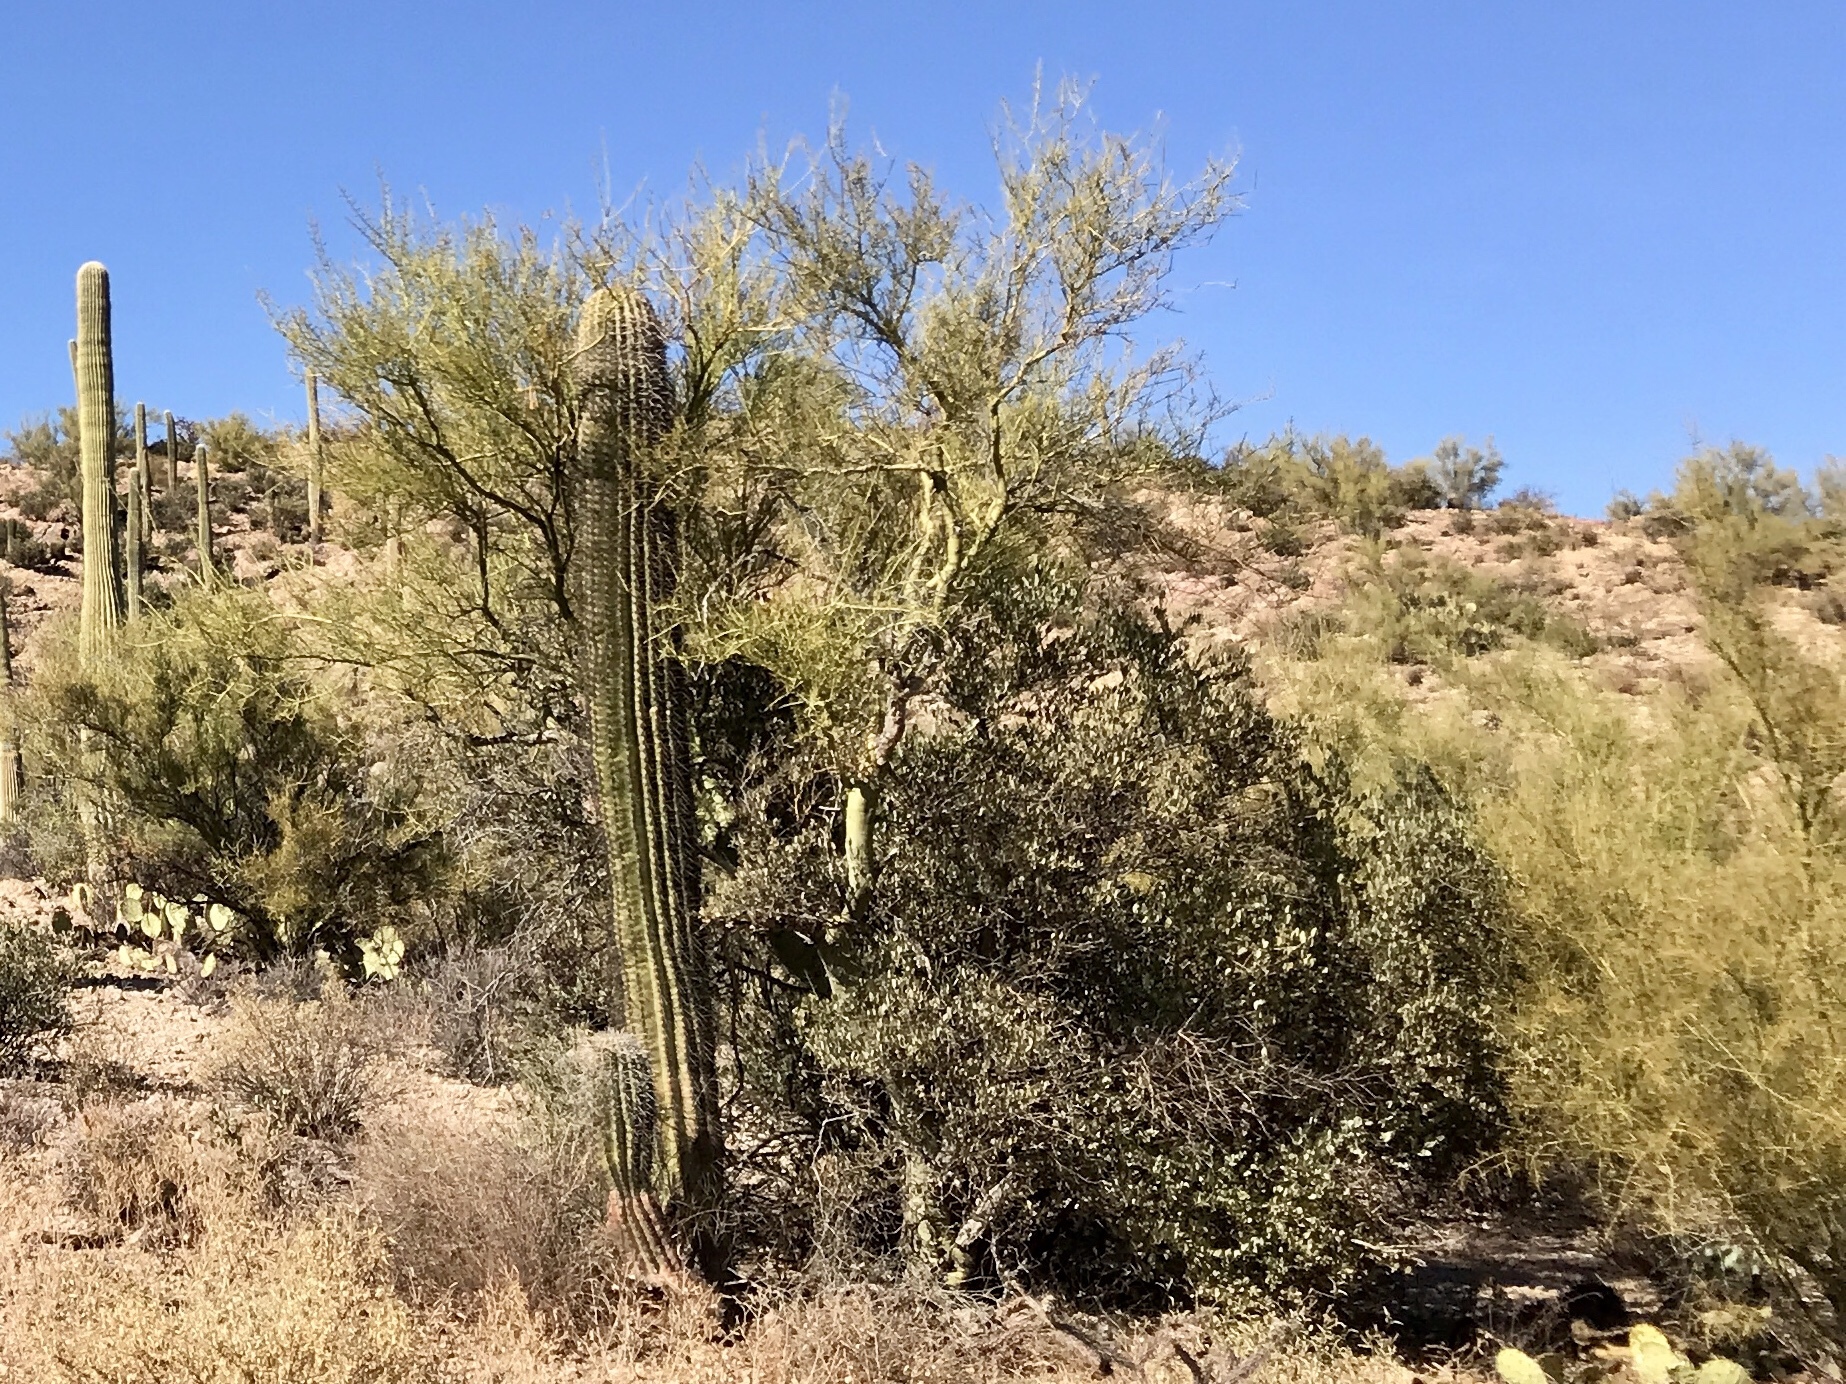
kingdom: Plantae
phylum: Tracheophyta
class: Magnoliopsida
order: Fabales
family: Fabaceae
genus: Parkinsonia
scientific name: Parkinsonia florida
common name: Blue paloverde
